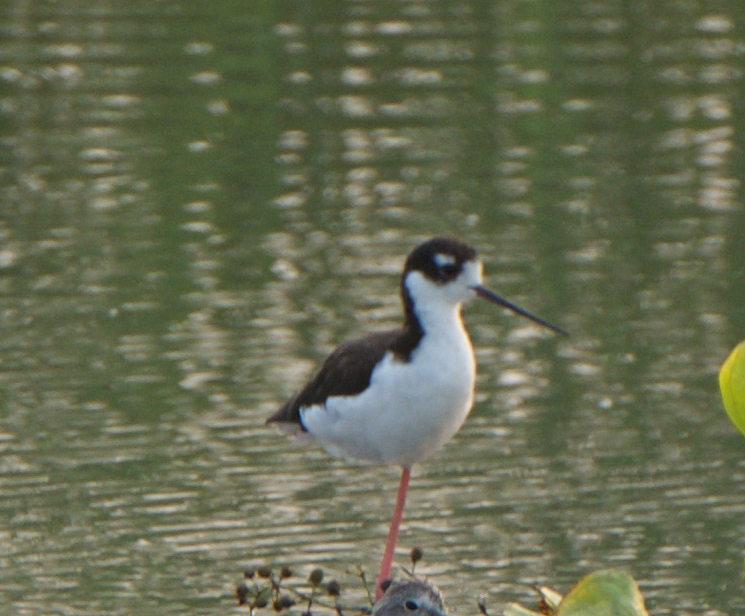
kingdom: Animalia
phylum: Chordata
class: Aves
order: Charadriiformes
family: Recurvirostridae
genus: Himantopus
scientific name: Himantopus mexicanus
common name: Black-necked stilt
